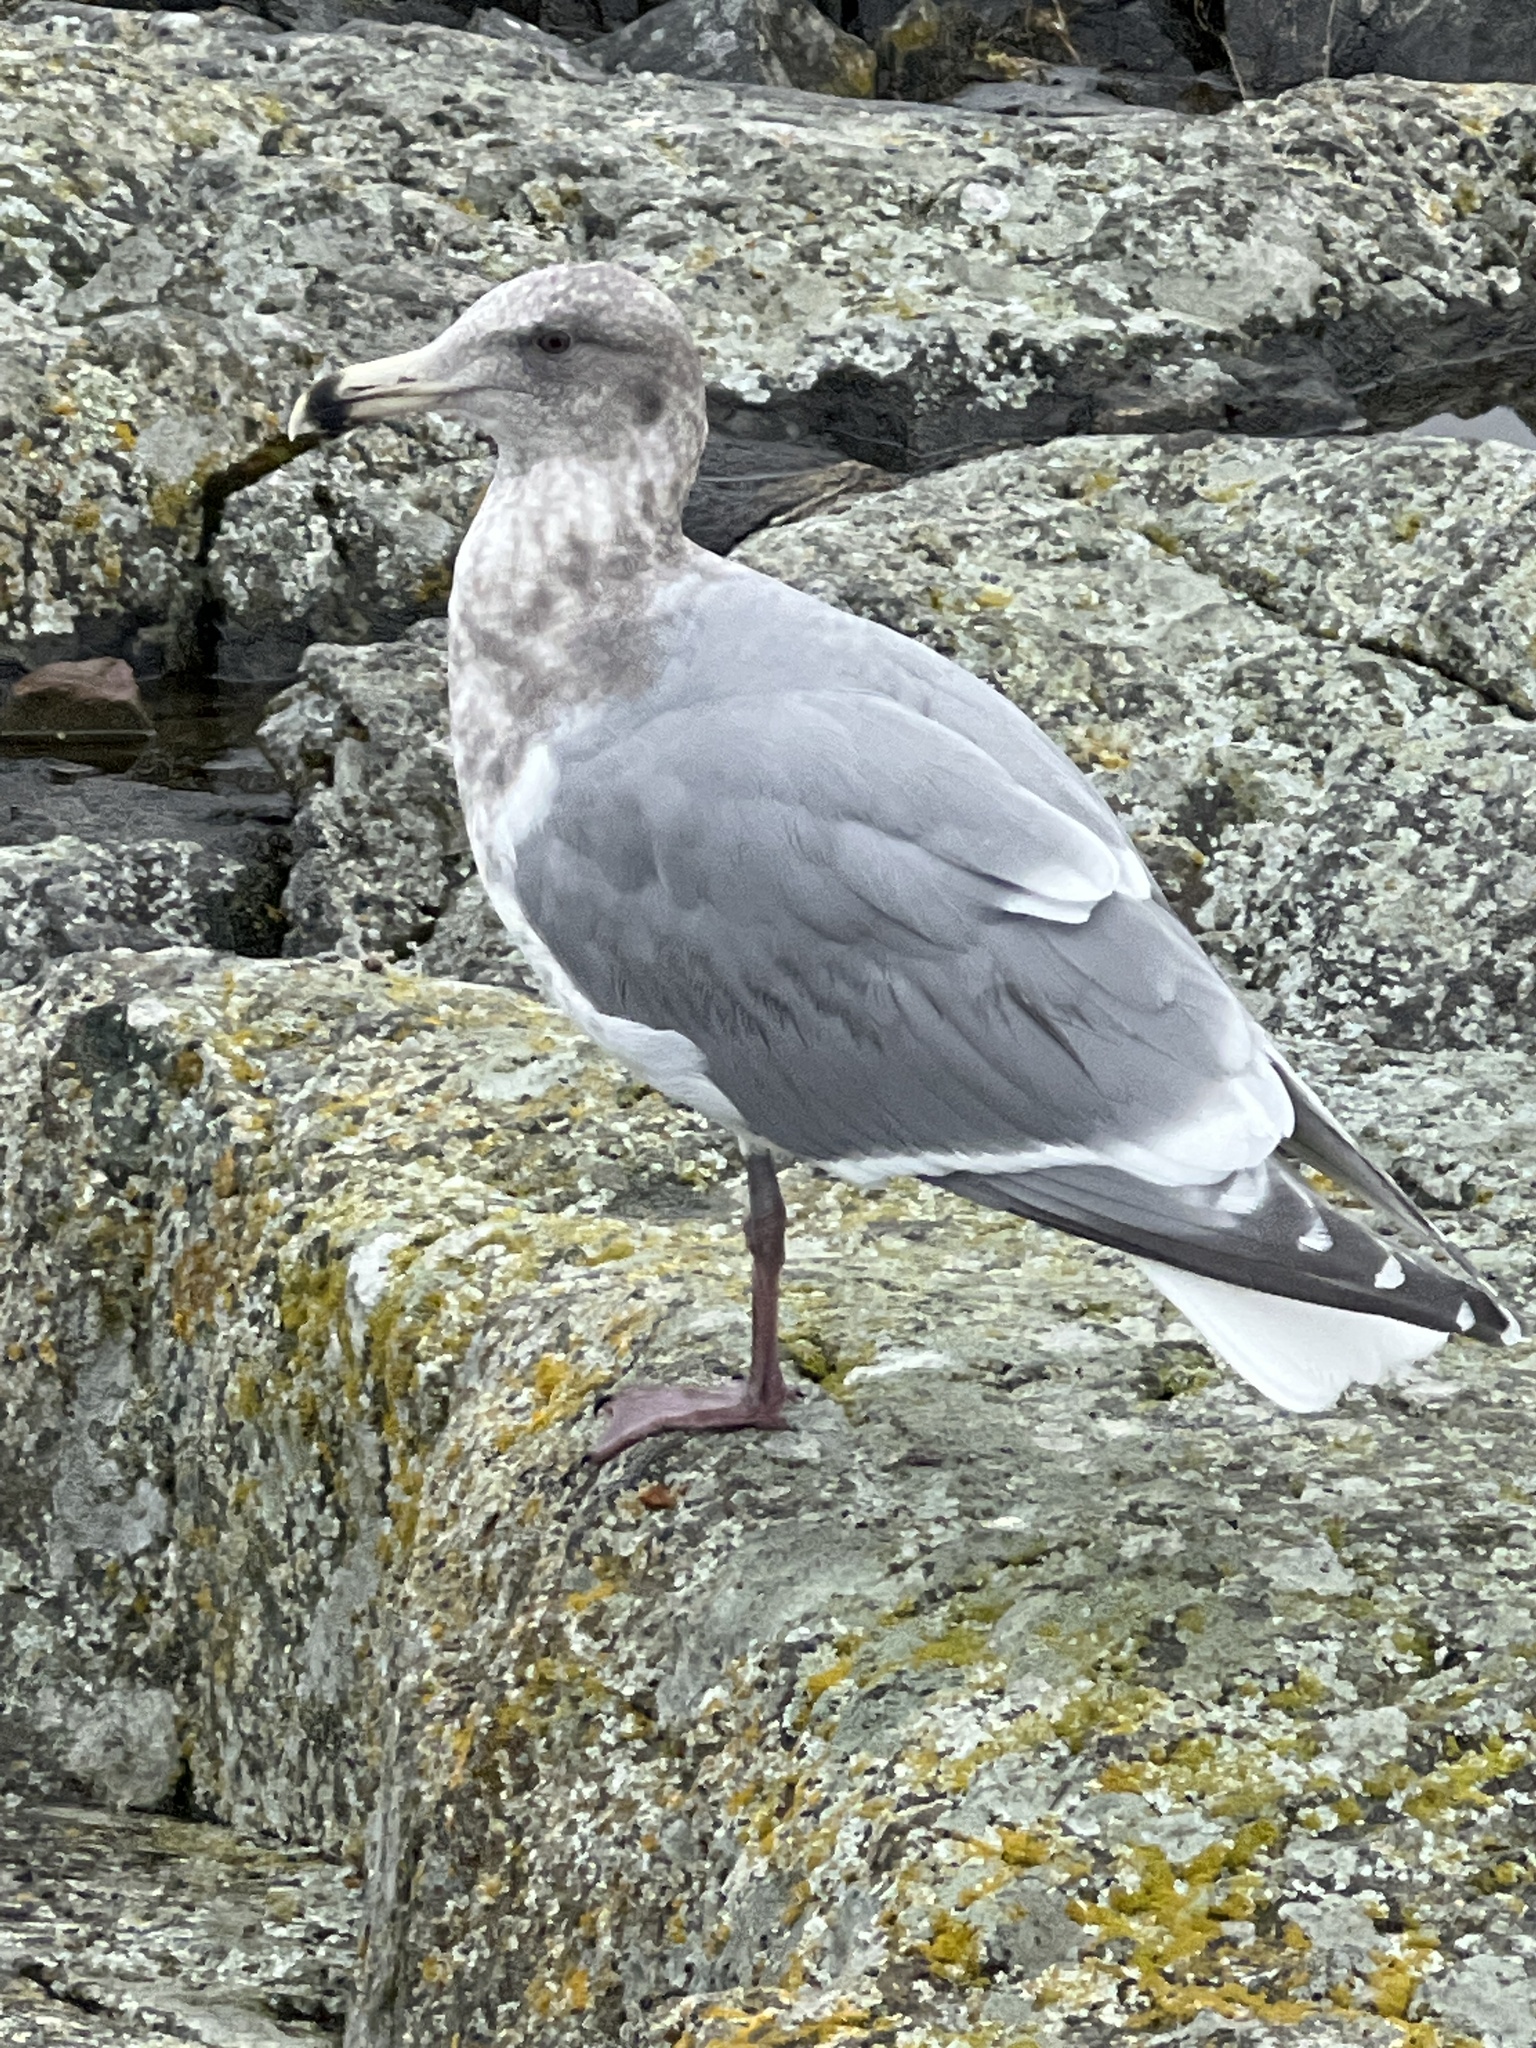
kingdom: Animalia
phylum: Chordata
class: Aves
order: Charadriiformes
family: Laridae
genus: Larus
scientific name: Larus
